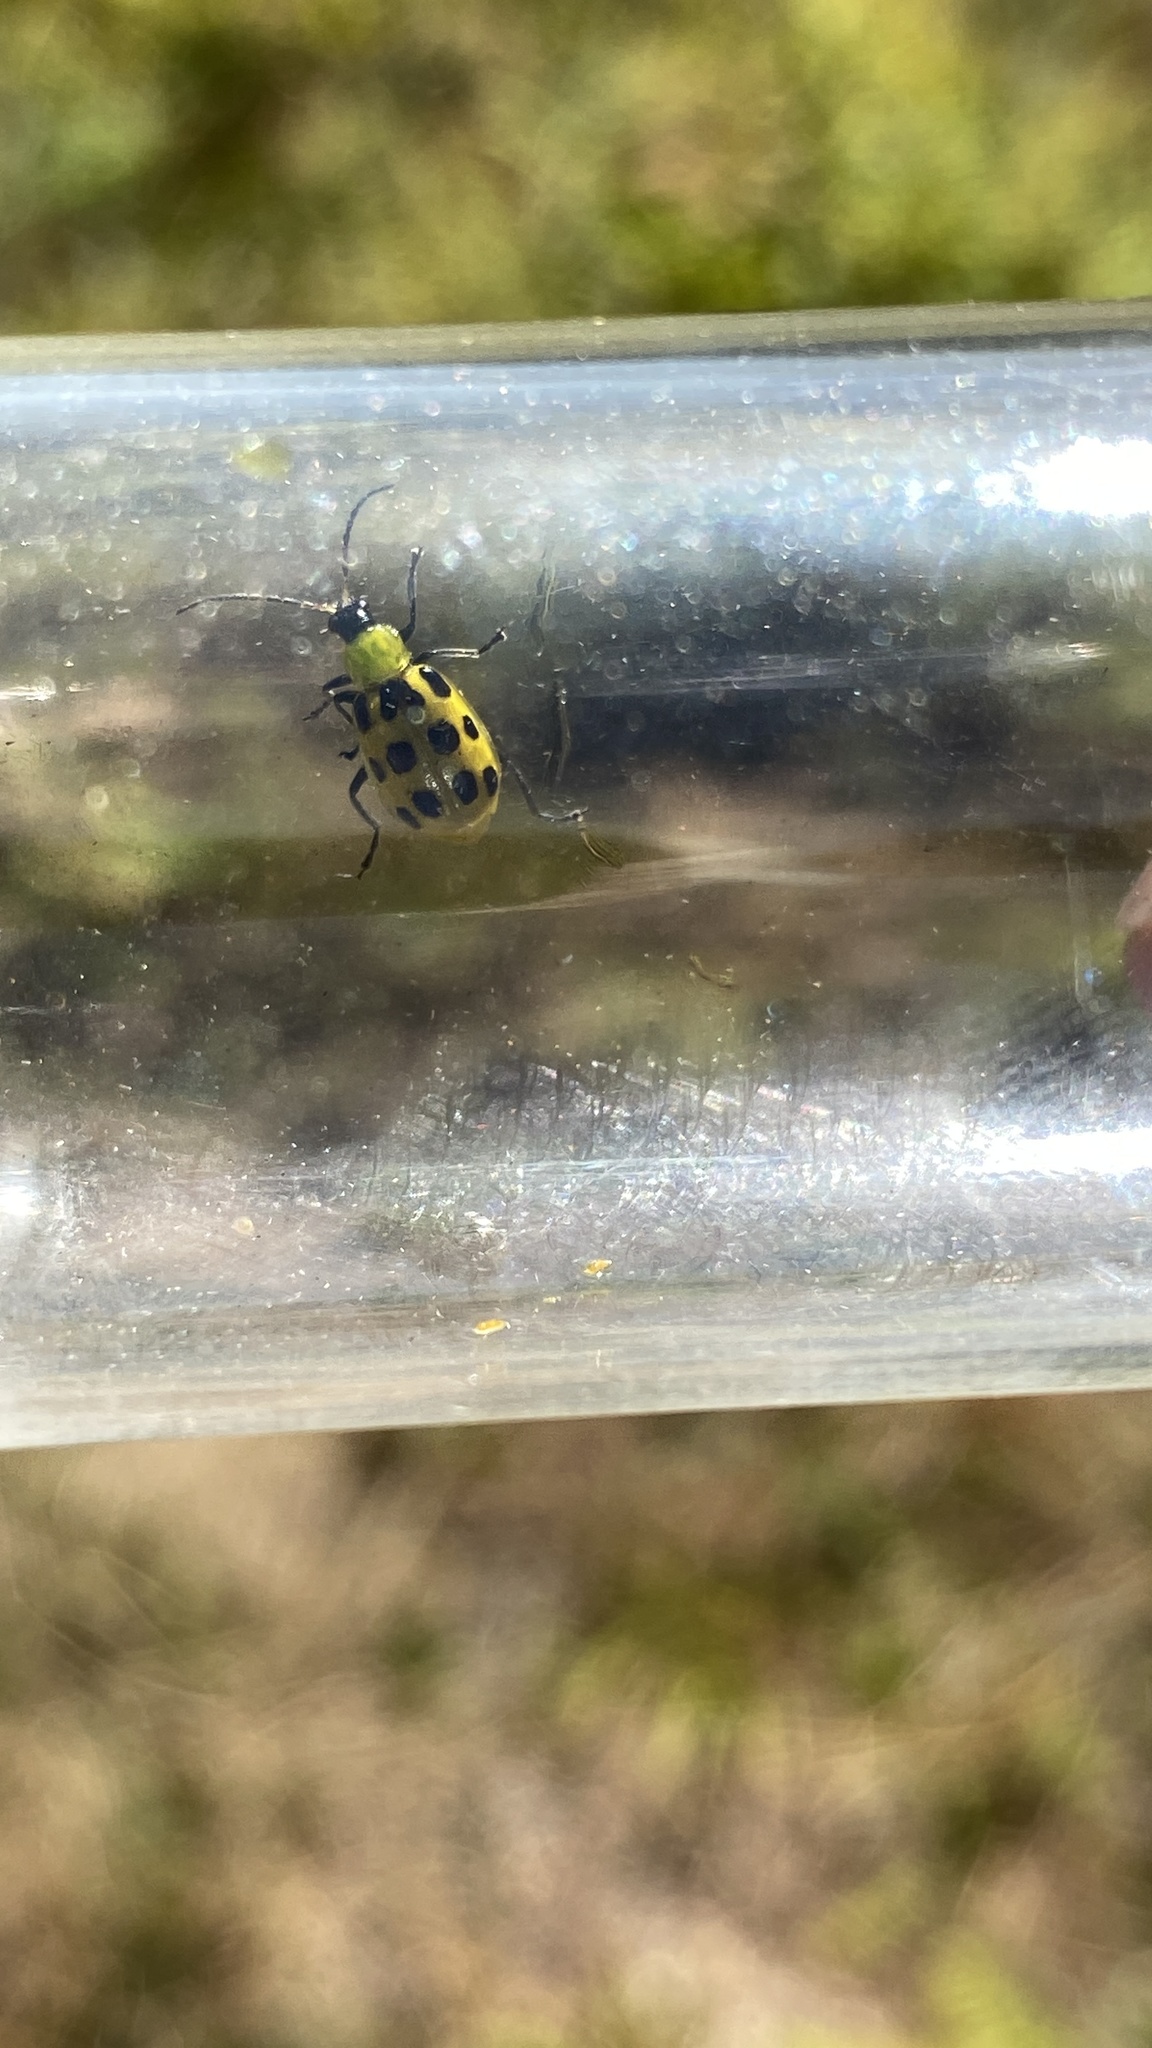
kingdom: Animalia
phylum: Arthropoda
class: Insecta
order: Coleoptera
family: Chrysomelidae
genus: Diabrotica
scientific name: Diabrotica undecimpunctata
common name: Spotted cucumber beetle
